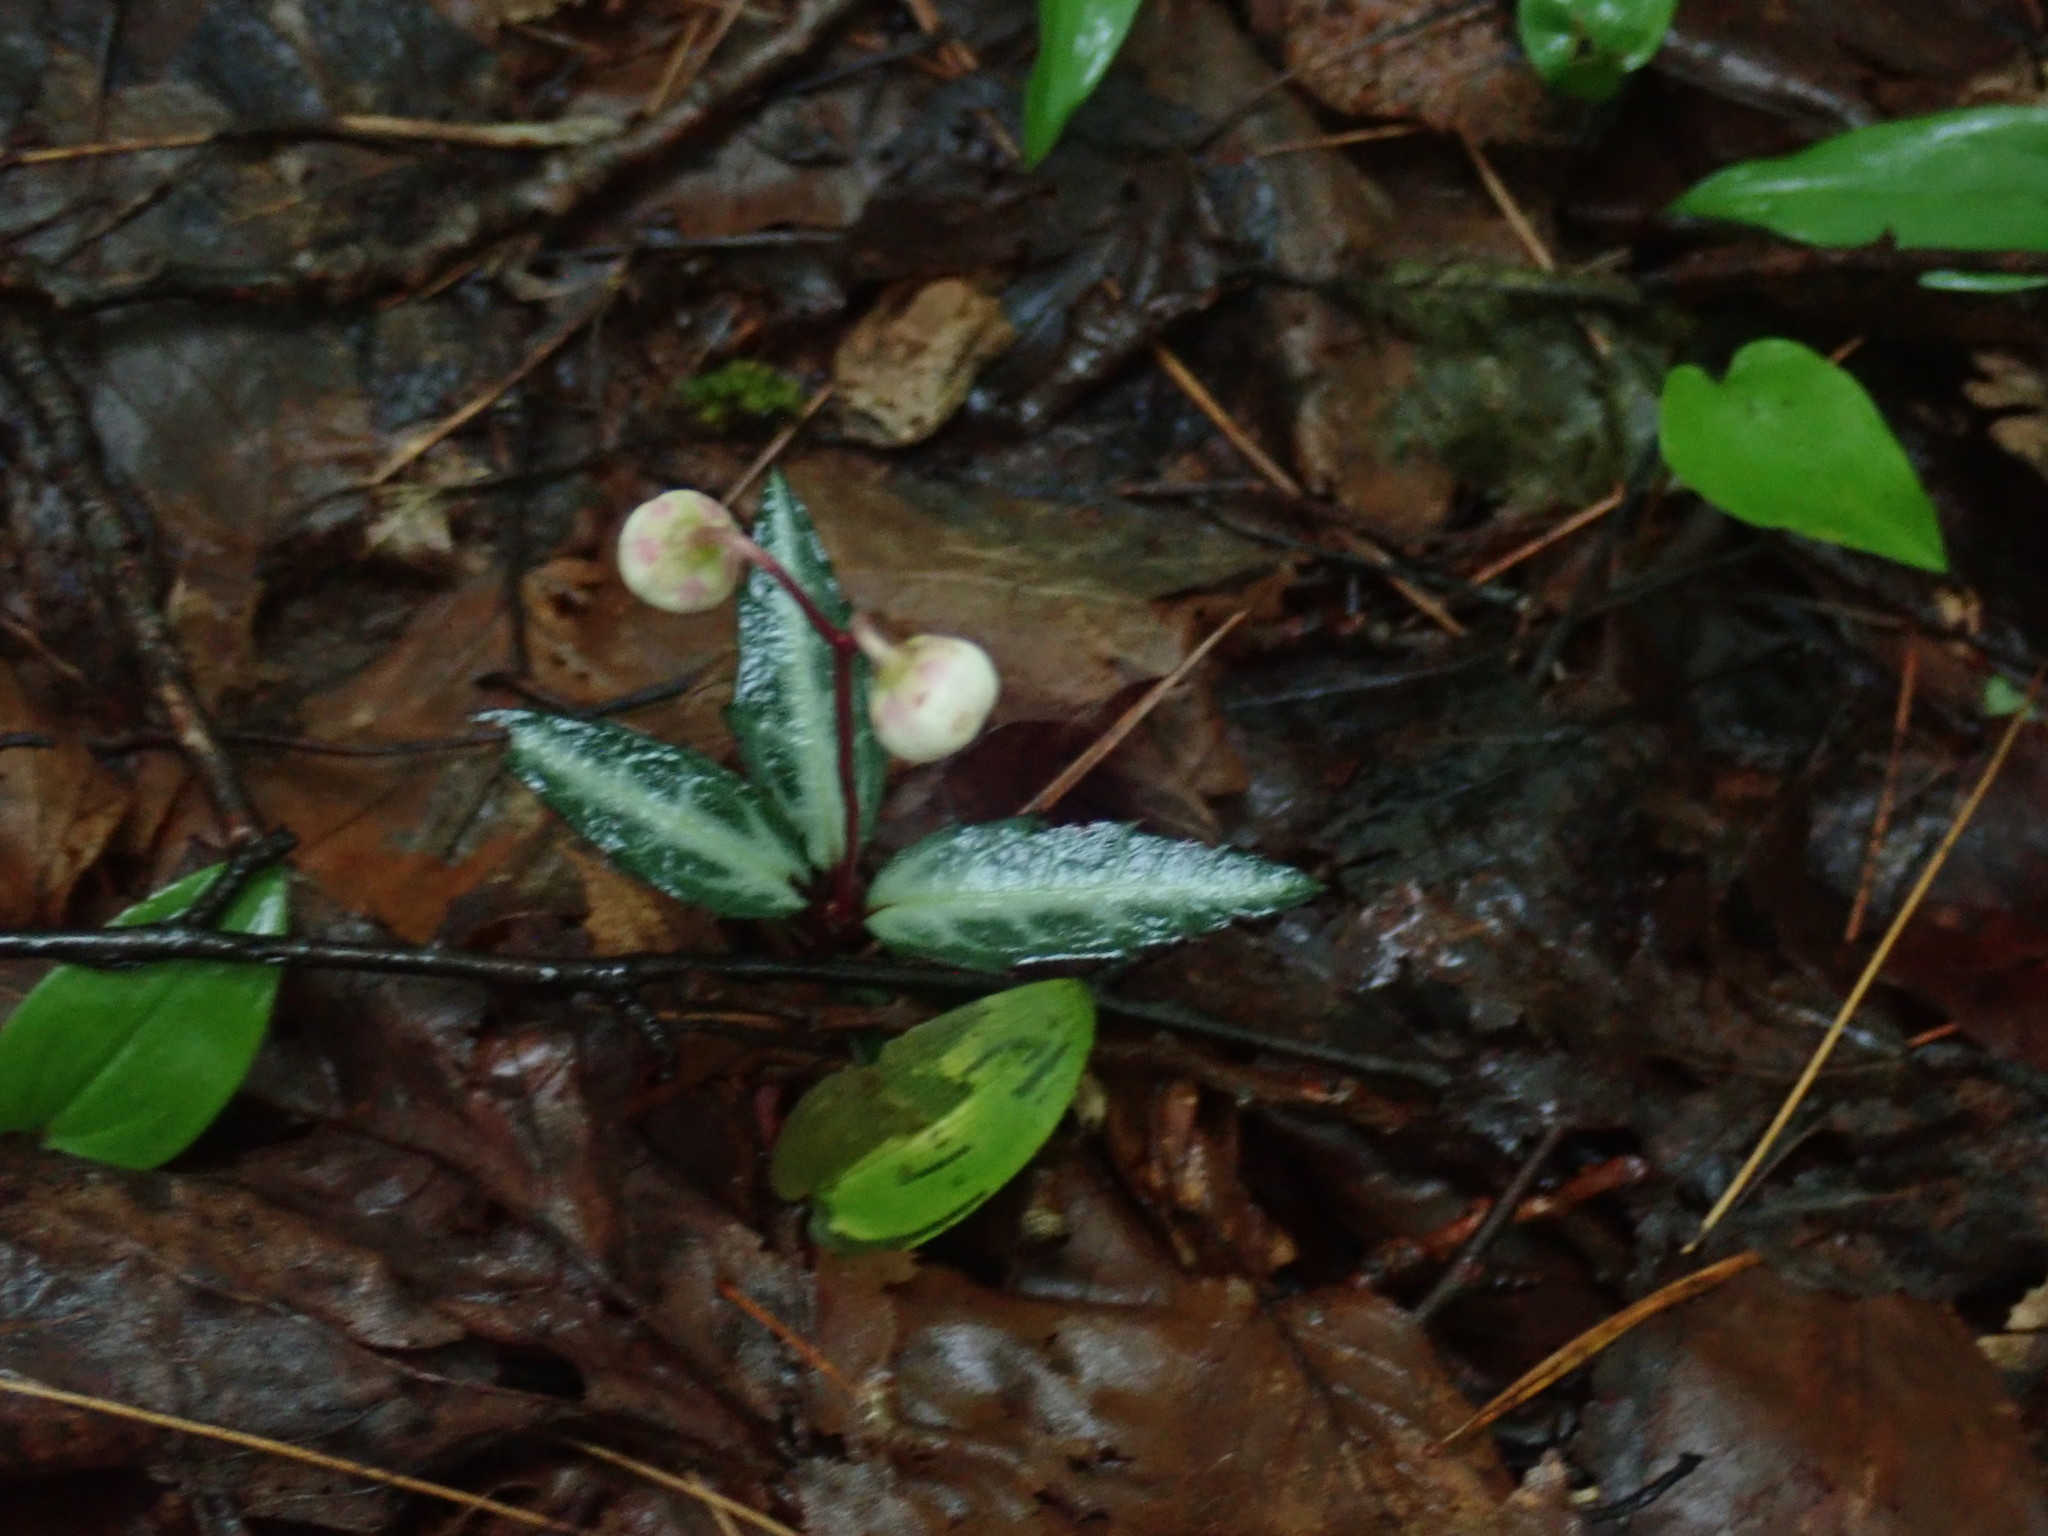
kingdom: Plantae
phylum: Tracheophyta
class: Magnoliopsida
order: Ericales
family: Ericaceae
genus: Chimaphila
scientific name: Chimaphila maculata
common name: Spotted pipsissewa
